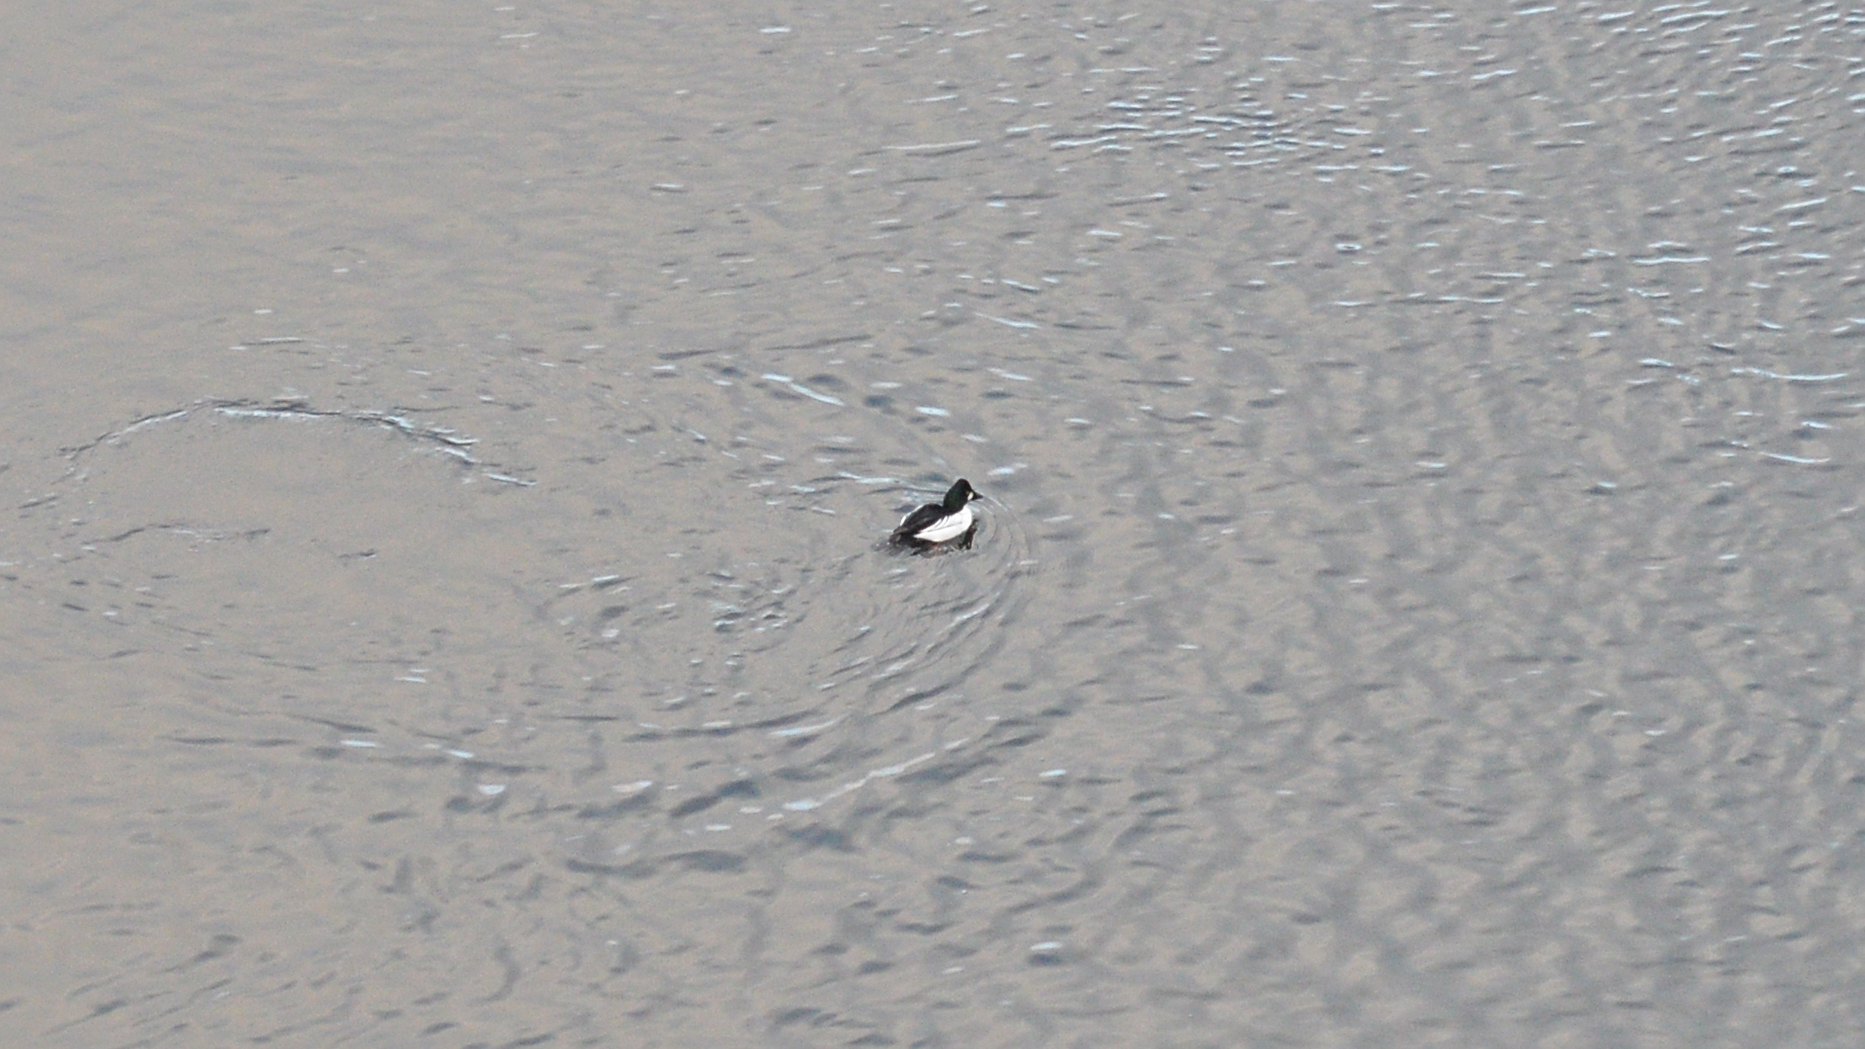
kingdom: Animalia
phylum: Chordata
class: Aves
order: Anseriformes
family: Anatidae
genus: Bucephala
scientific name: Bucephala clangula
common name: Common goldeneye
